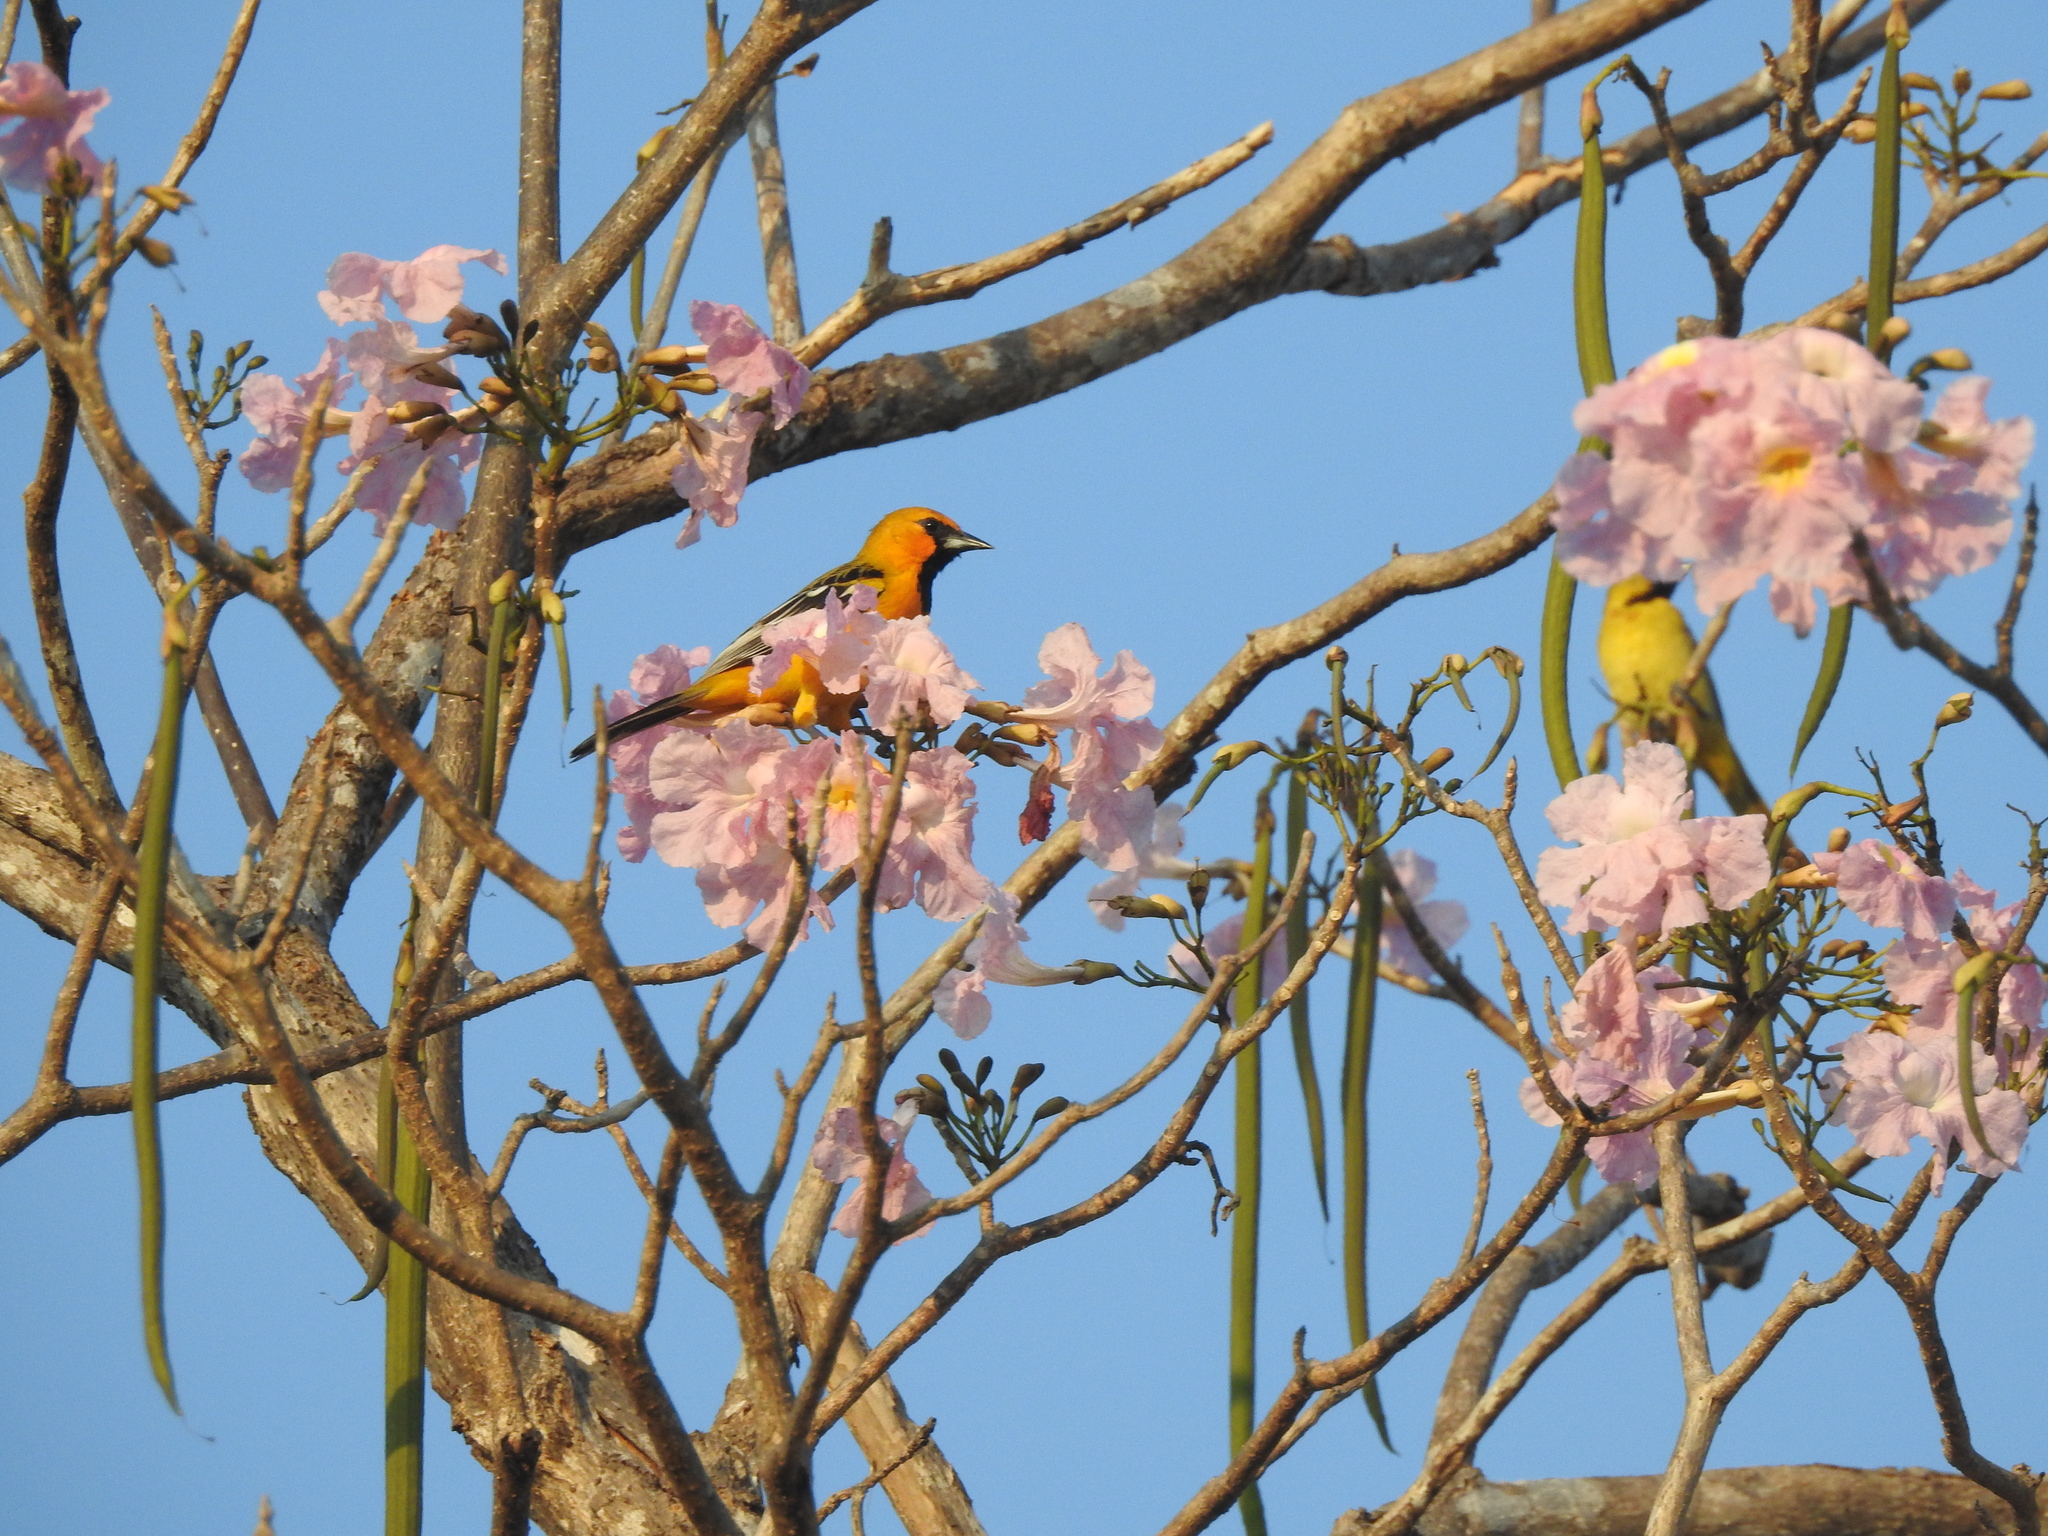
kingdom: Animalia
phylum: Chordata
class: Aves
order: Passeriformes
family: Icteridae
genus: Icterus
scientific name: Icterus pustulatus
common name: Streak-backed oriole
